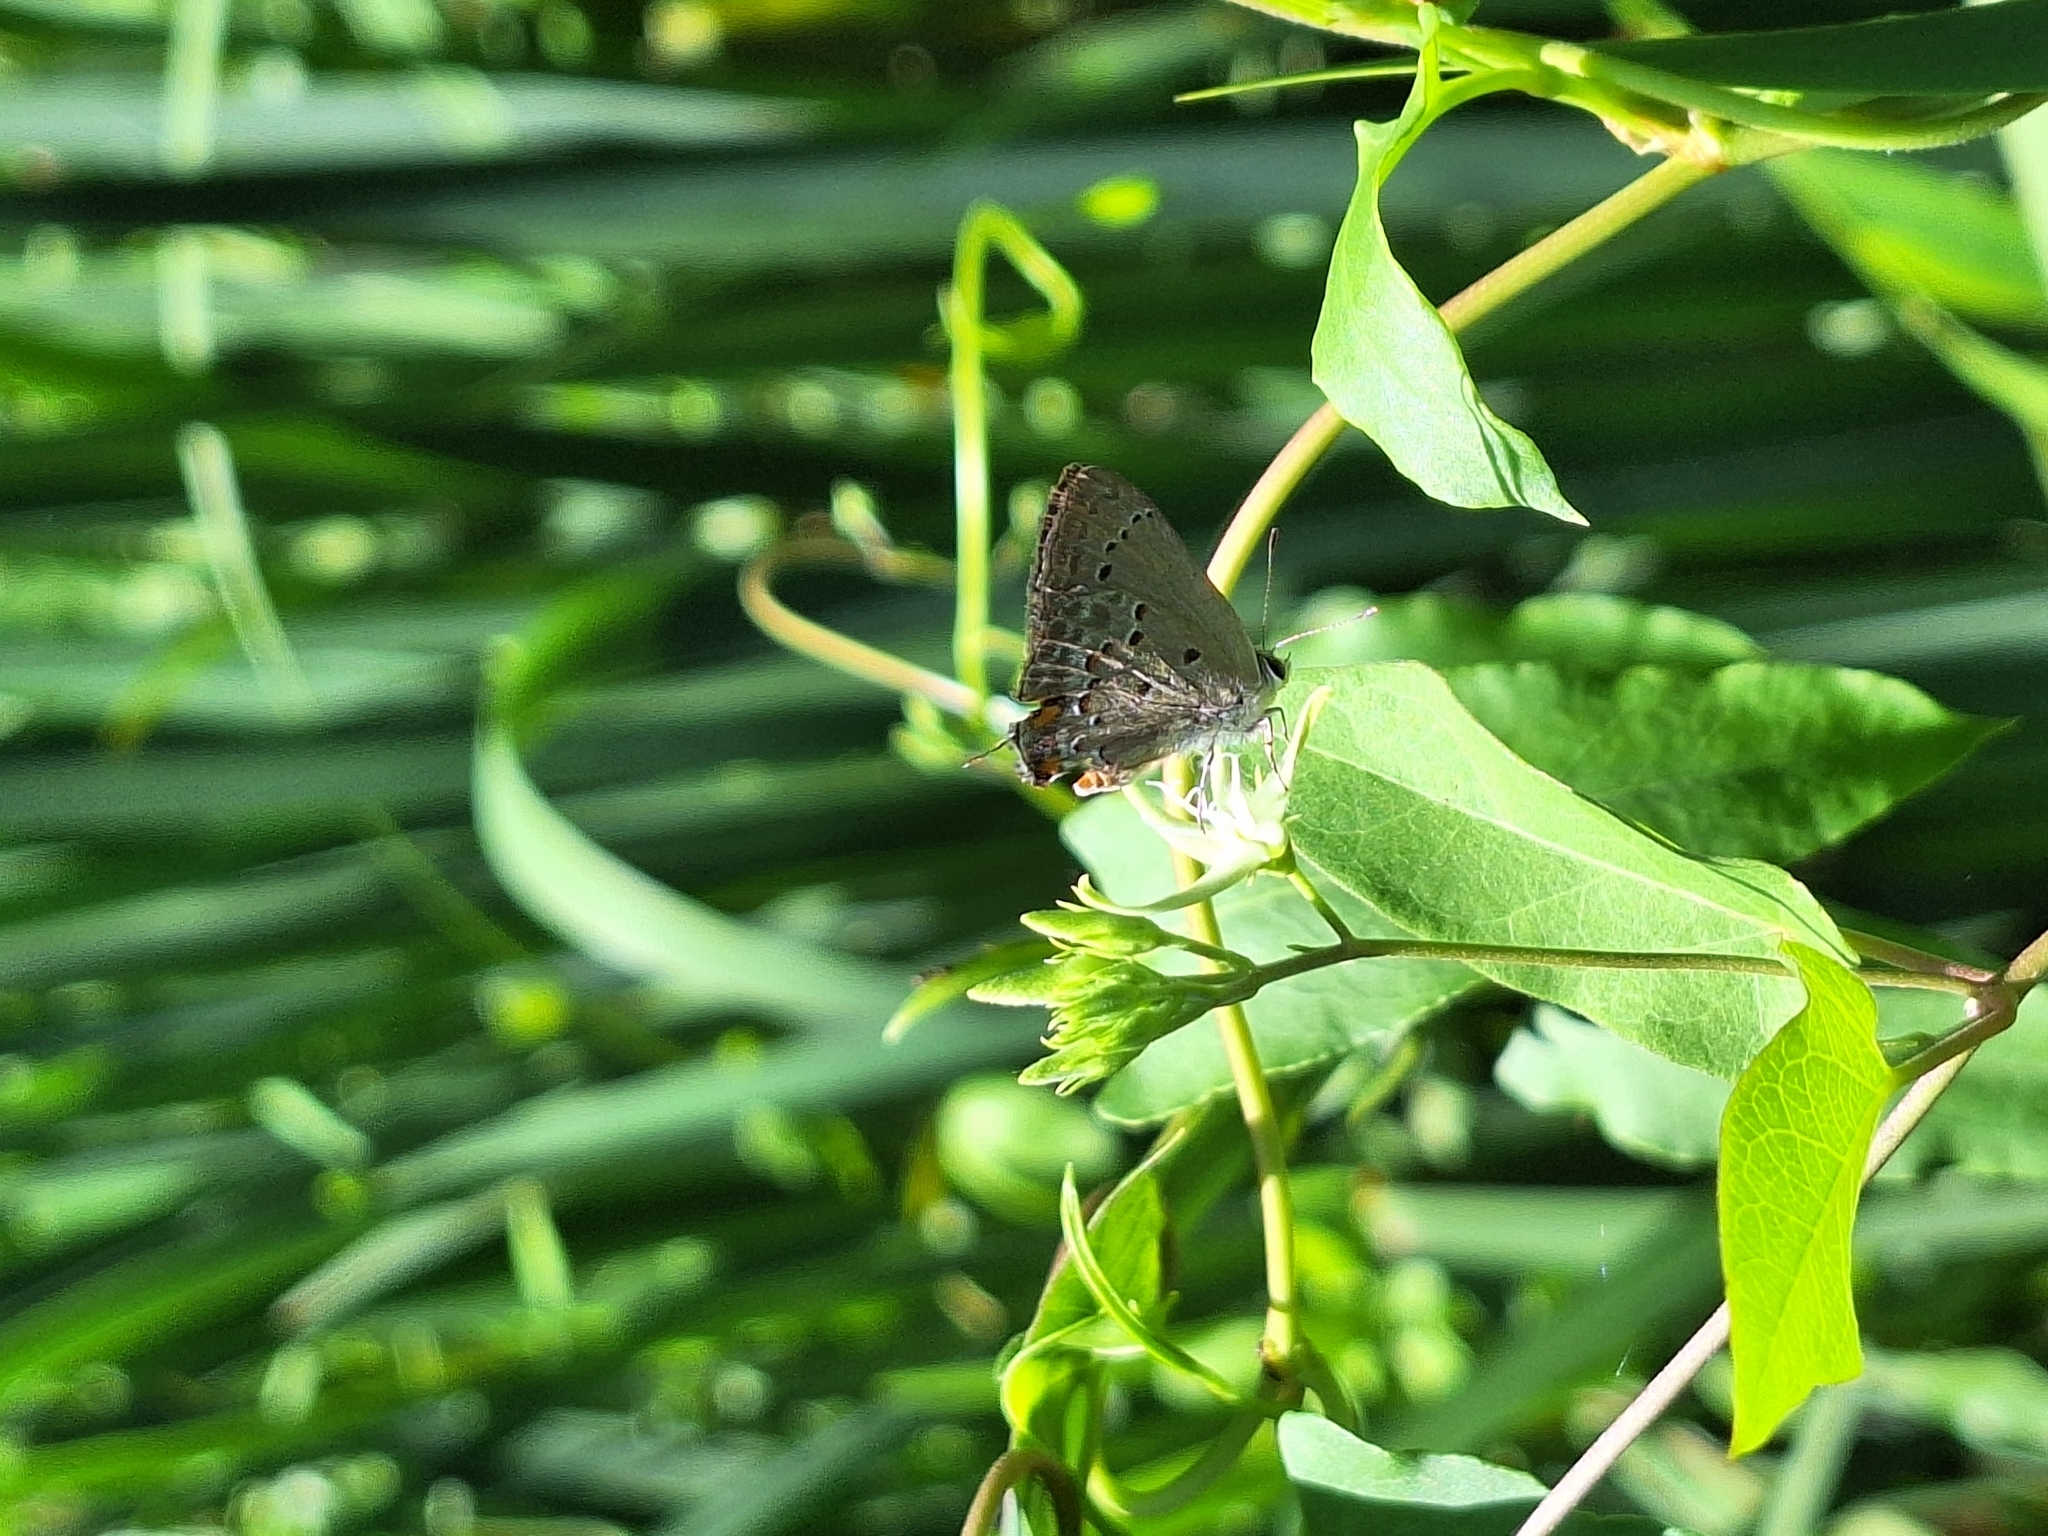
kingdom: Animalia
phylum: Arthropoda
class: Insecta
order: Lepidoptera
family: Lycaenidae
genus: Strymon
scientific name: Strymon eurytulus
